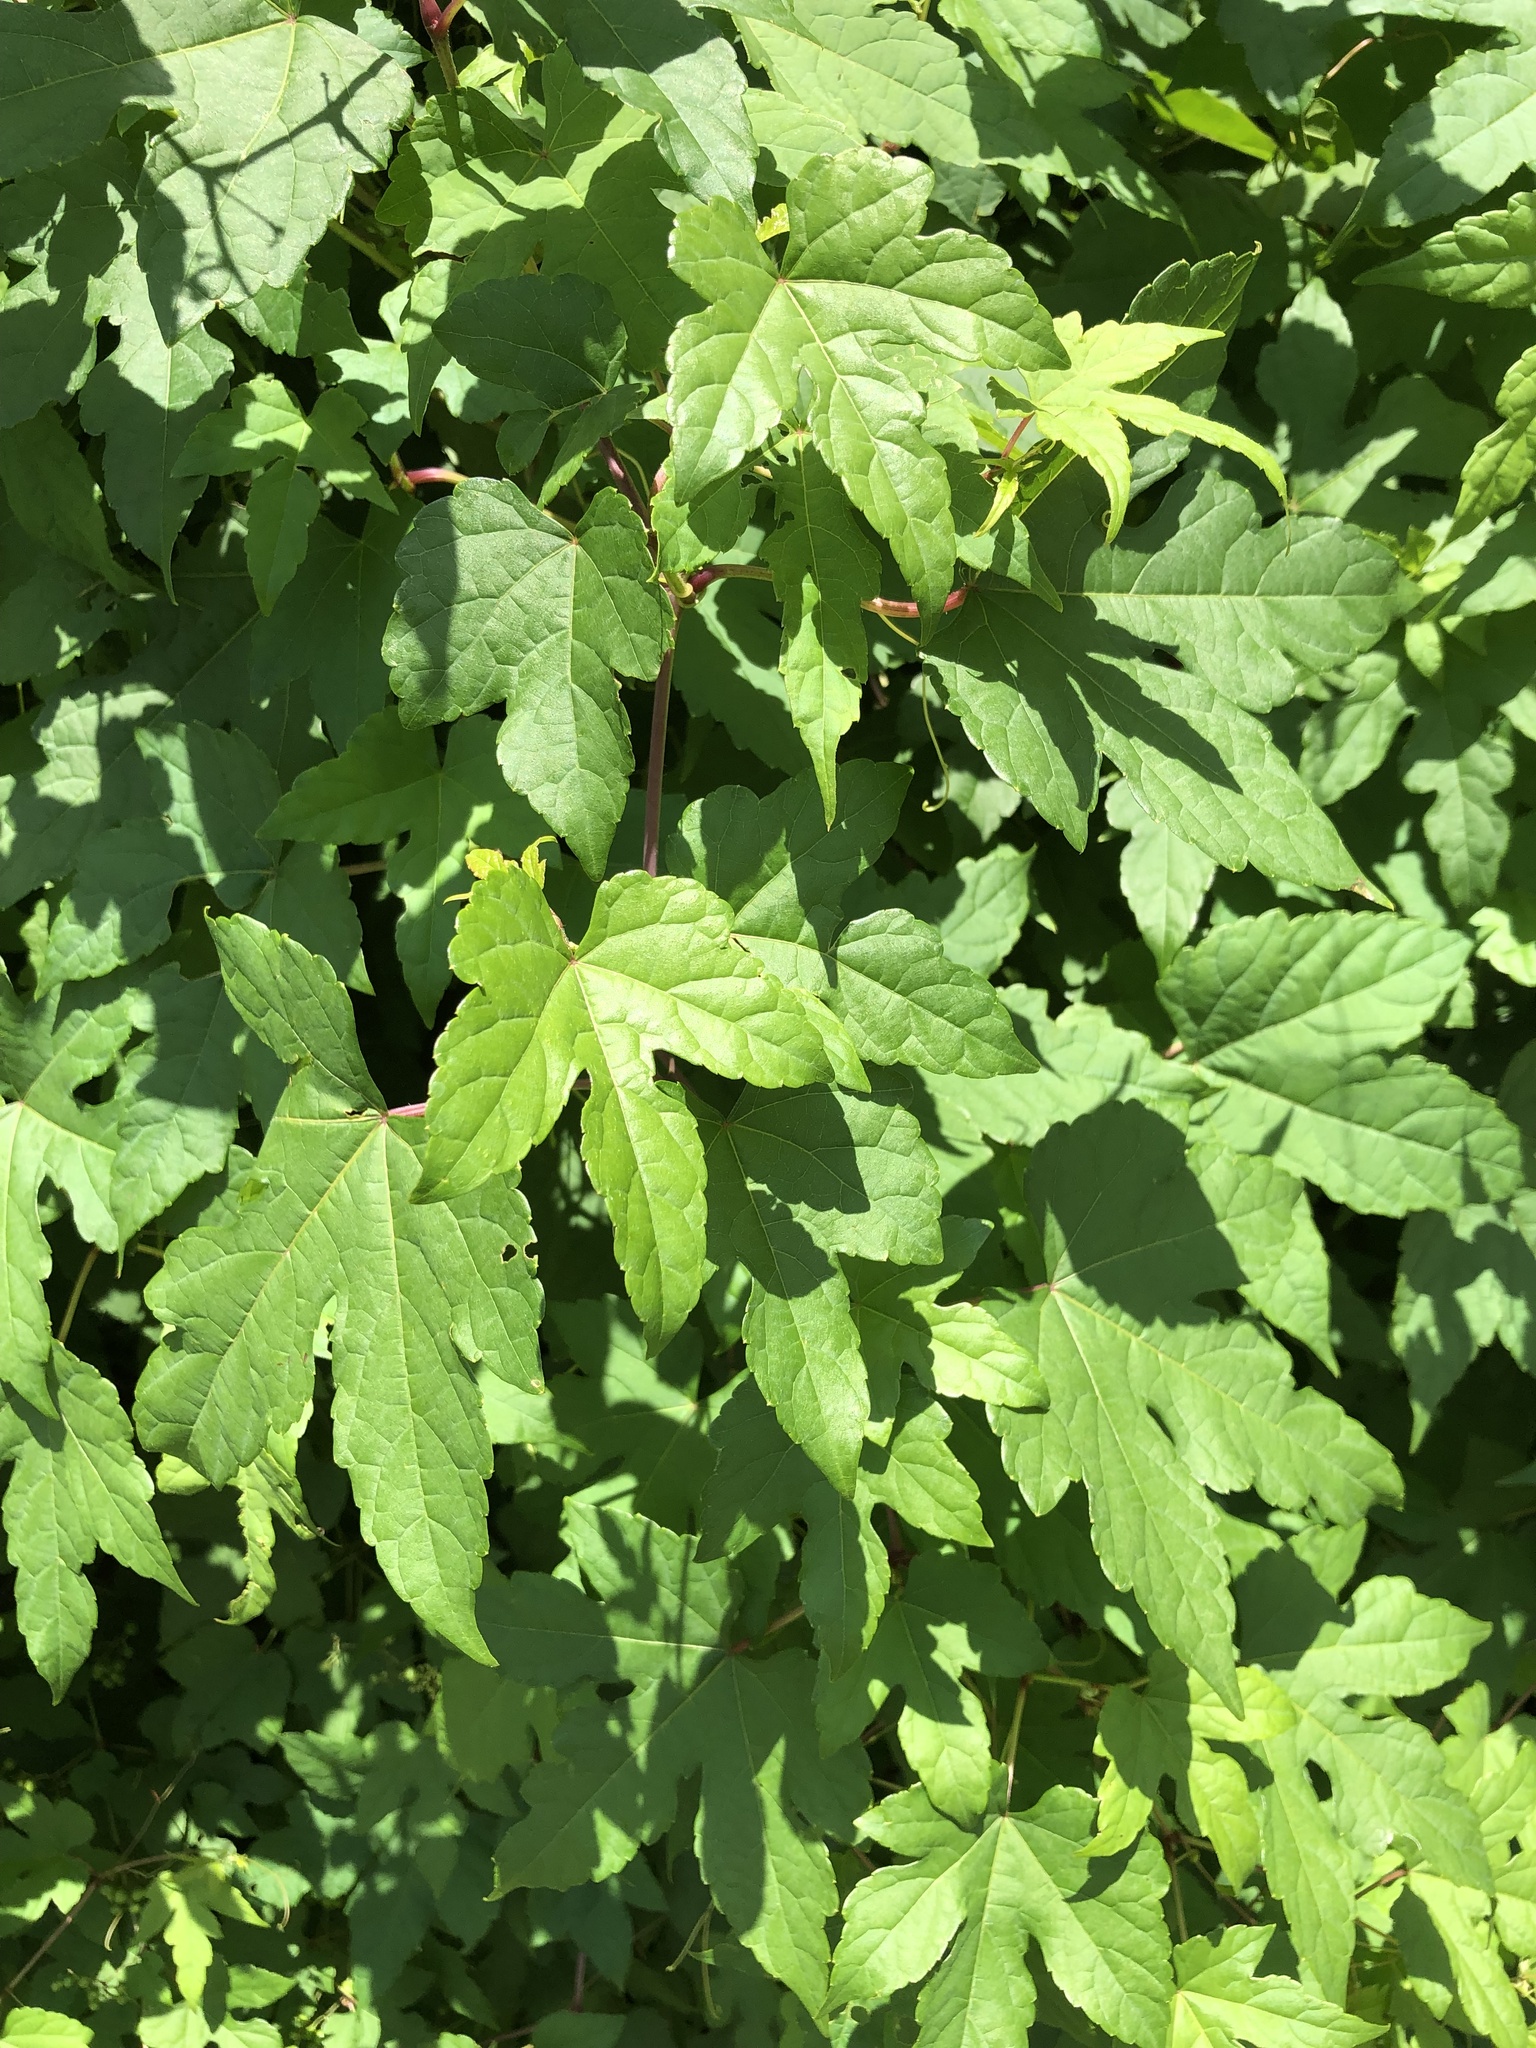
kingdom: Plantae
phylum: Tracheophyta
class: Magnoliopsida
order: Vitales
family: Vitaceae
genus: Ampelopsis
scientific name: Ampelopsis glandulosa
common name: Amur peppervine
